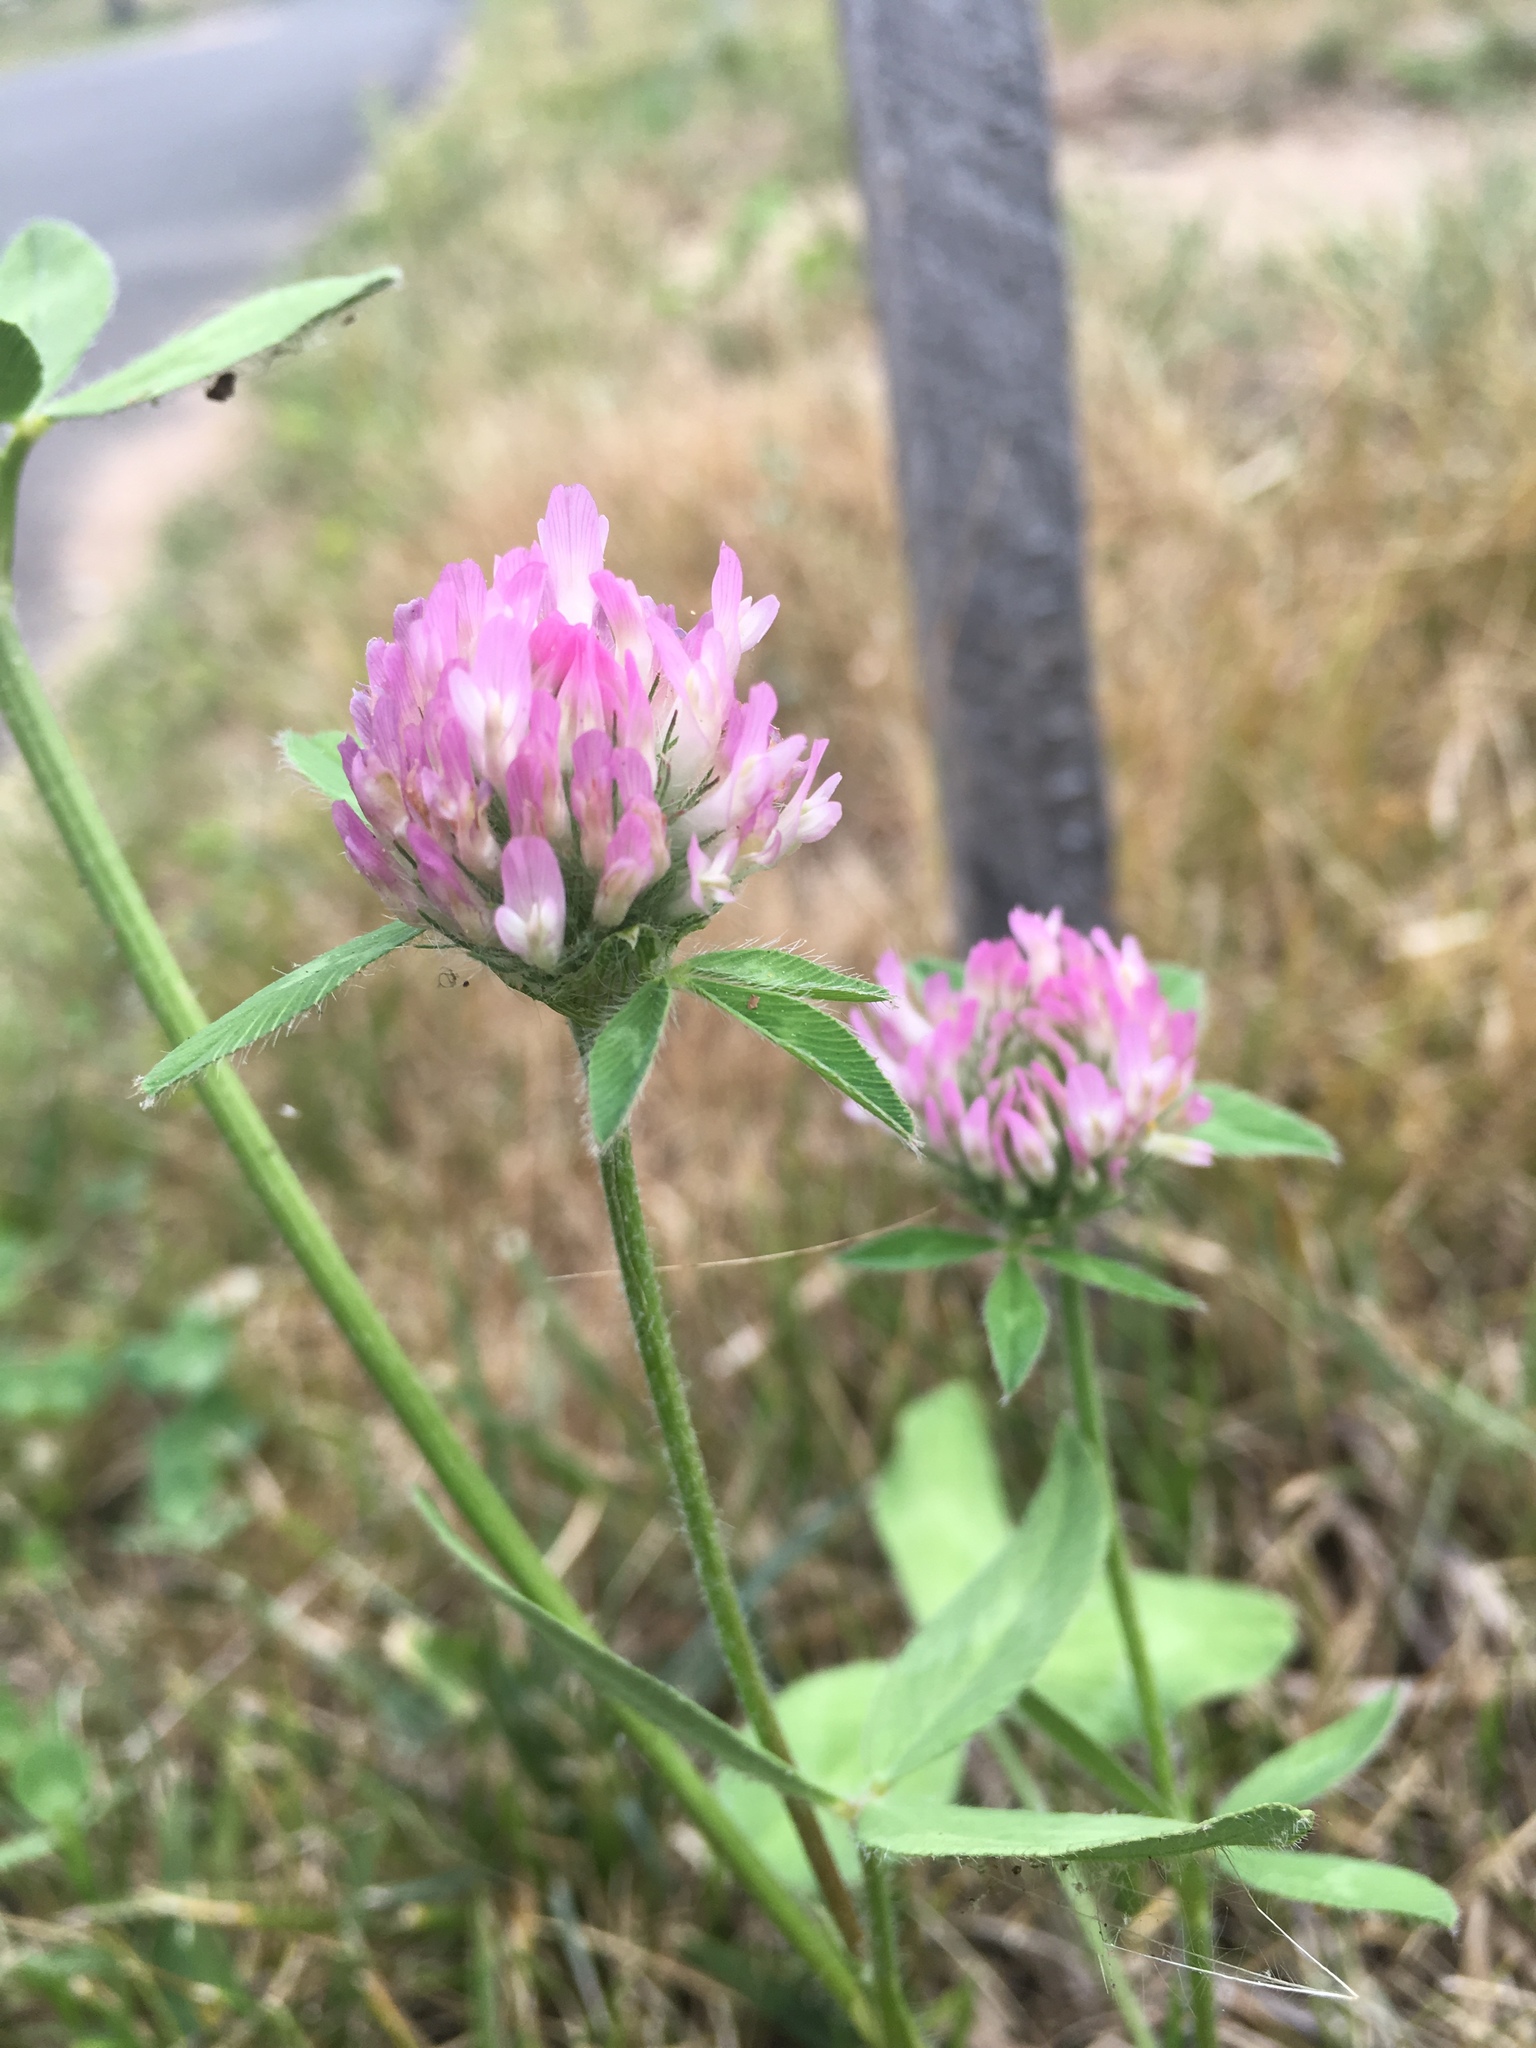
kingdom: Plantae
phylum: Tracheophyta
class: Magnoliopsida
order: Fabales
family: Fabaceae
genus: Trifolium
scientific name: Trifolium pratense
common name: Red clover
